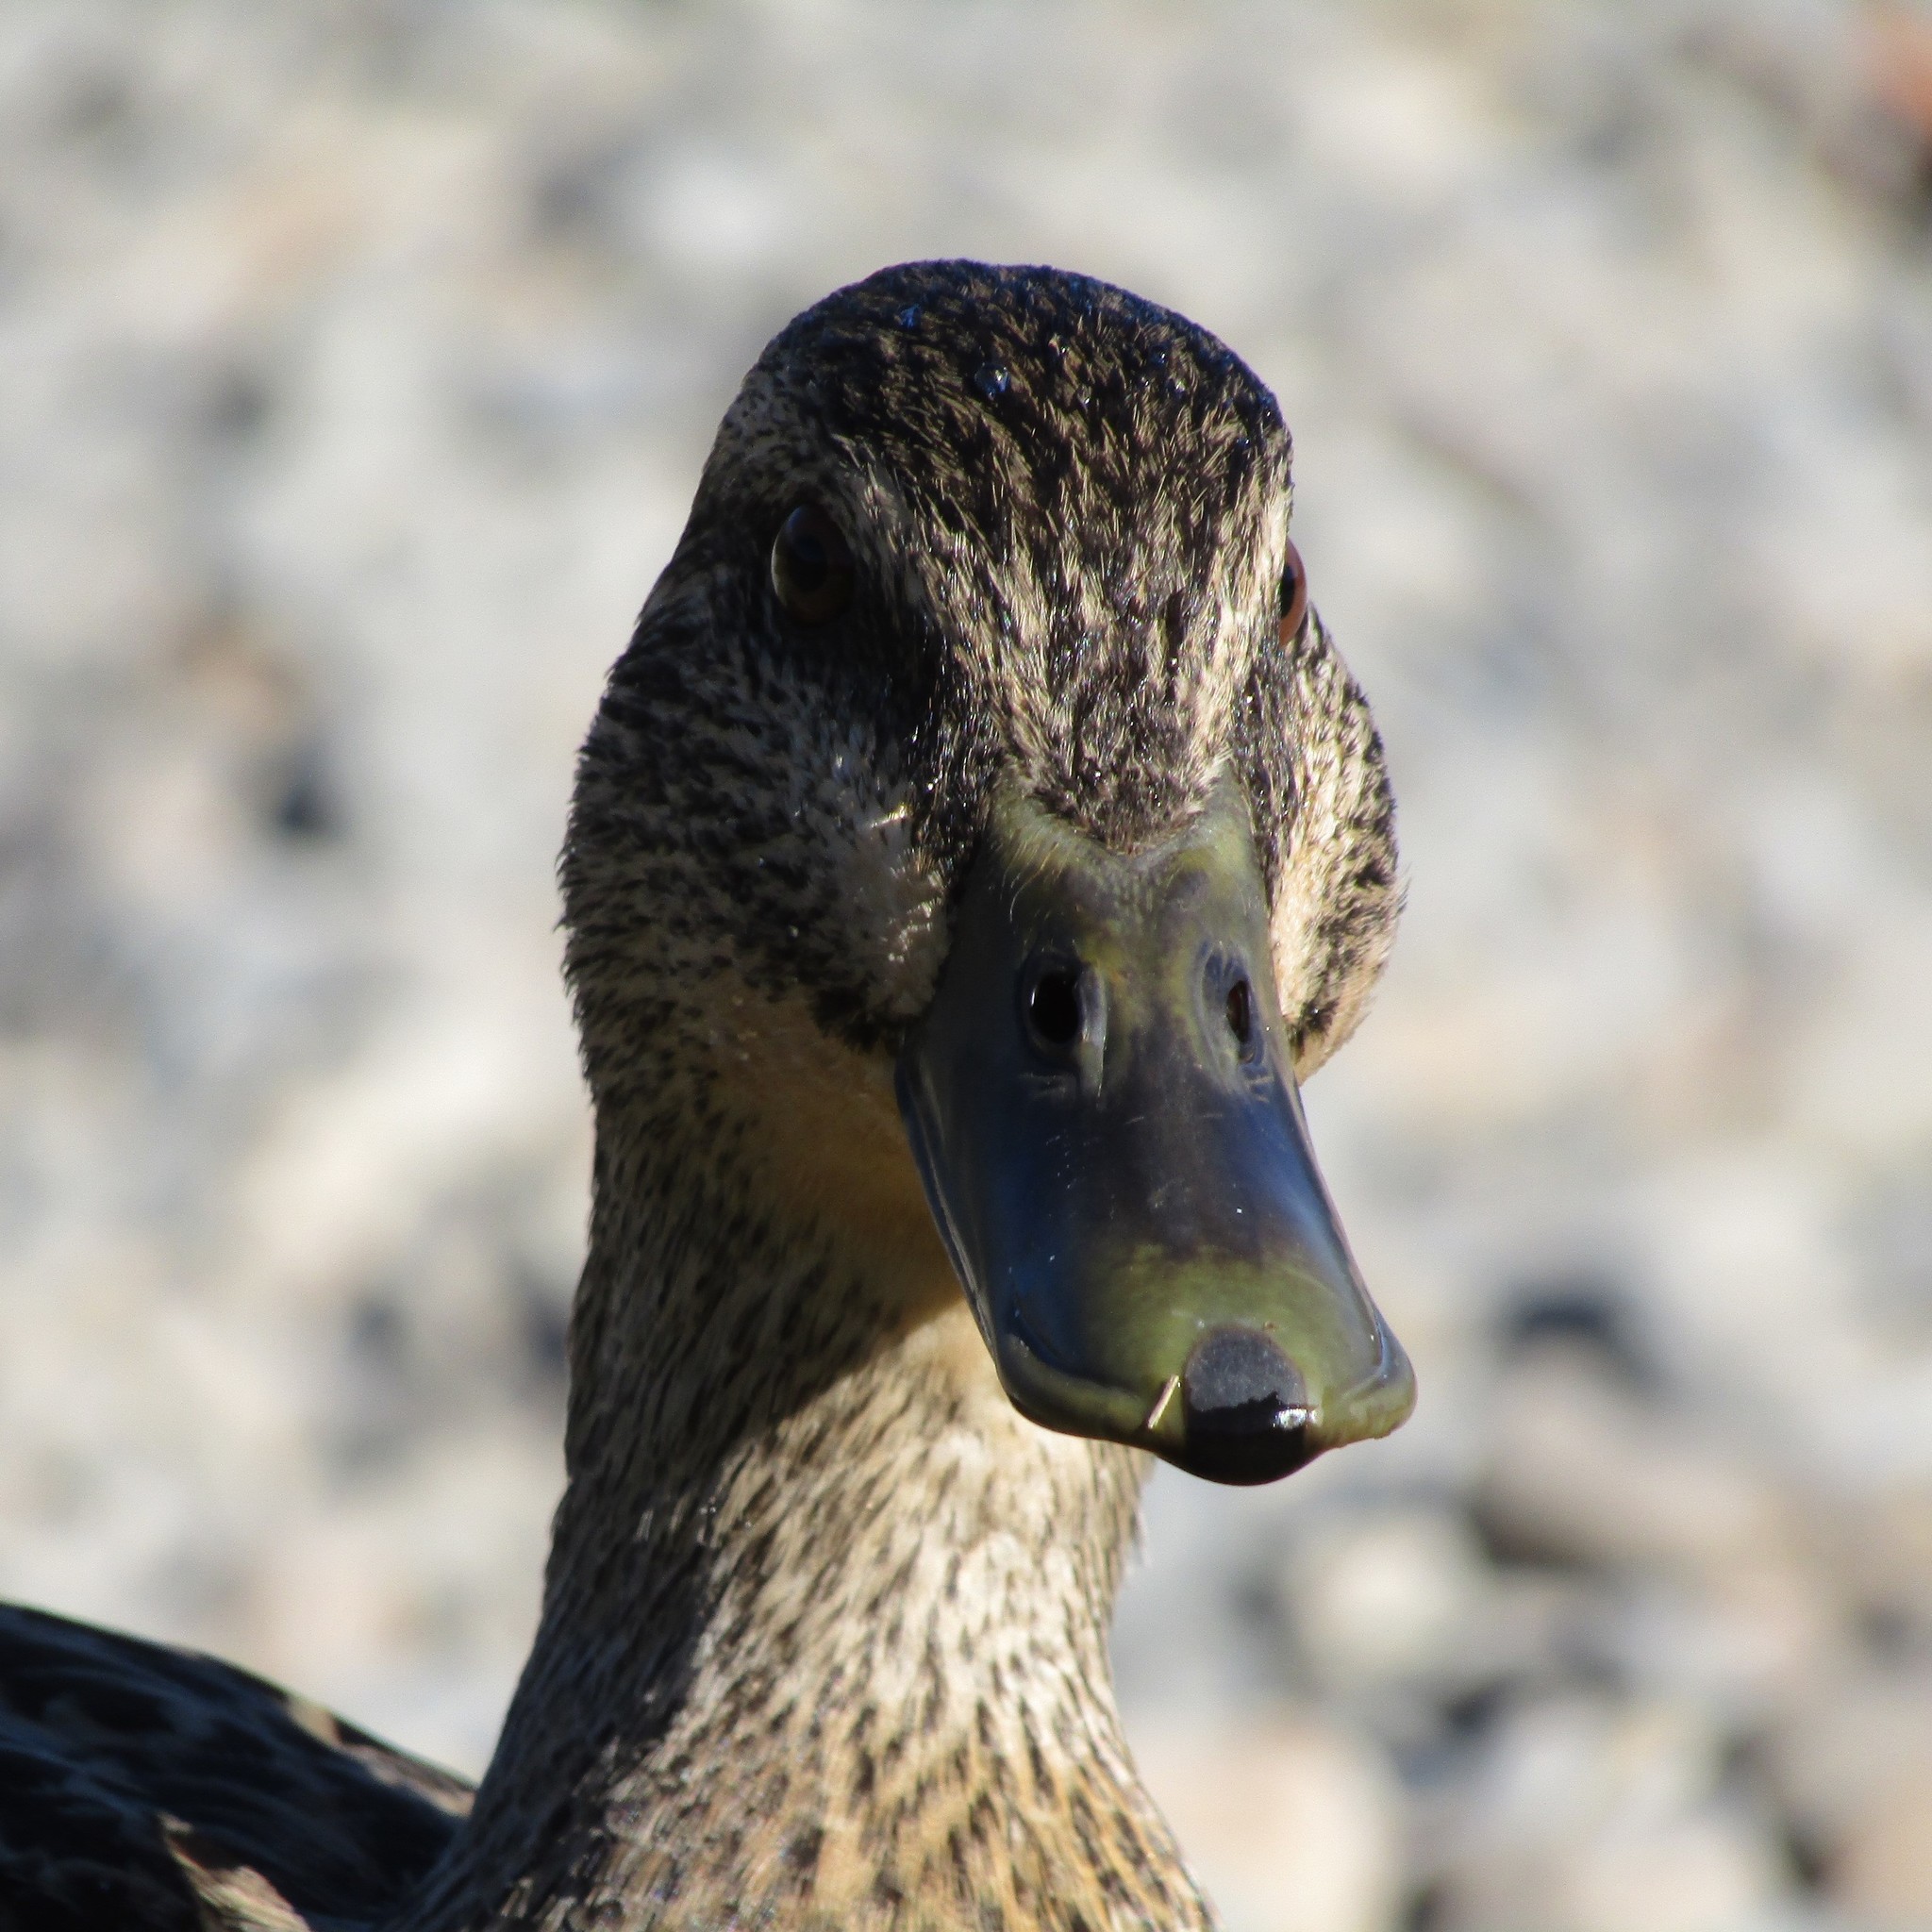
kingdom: Animalia
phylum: Chordata
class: Aves
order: Anseriformes
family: Anatidae
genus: Anas
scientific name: Anas
